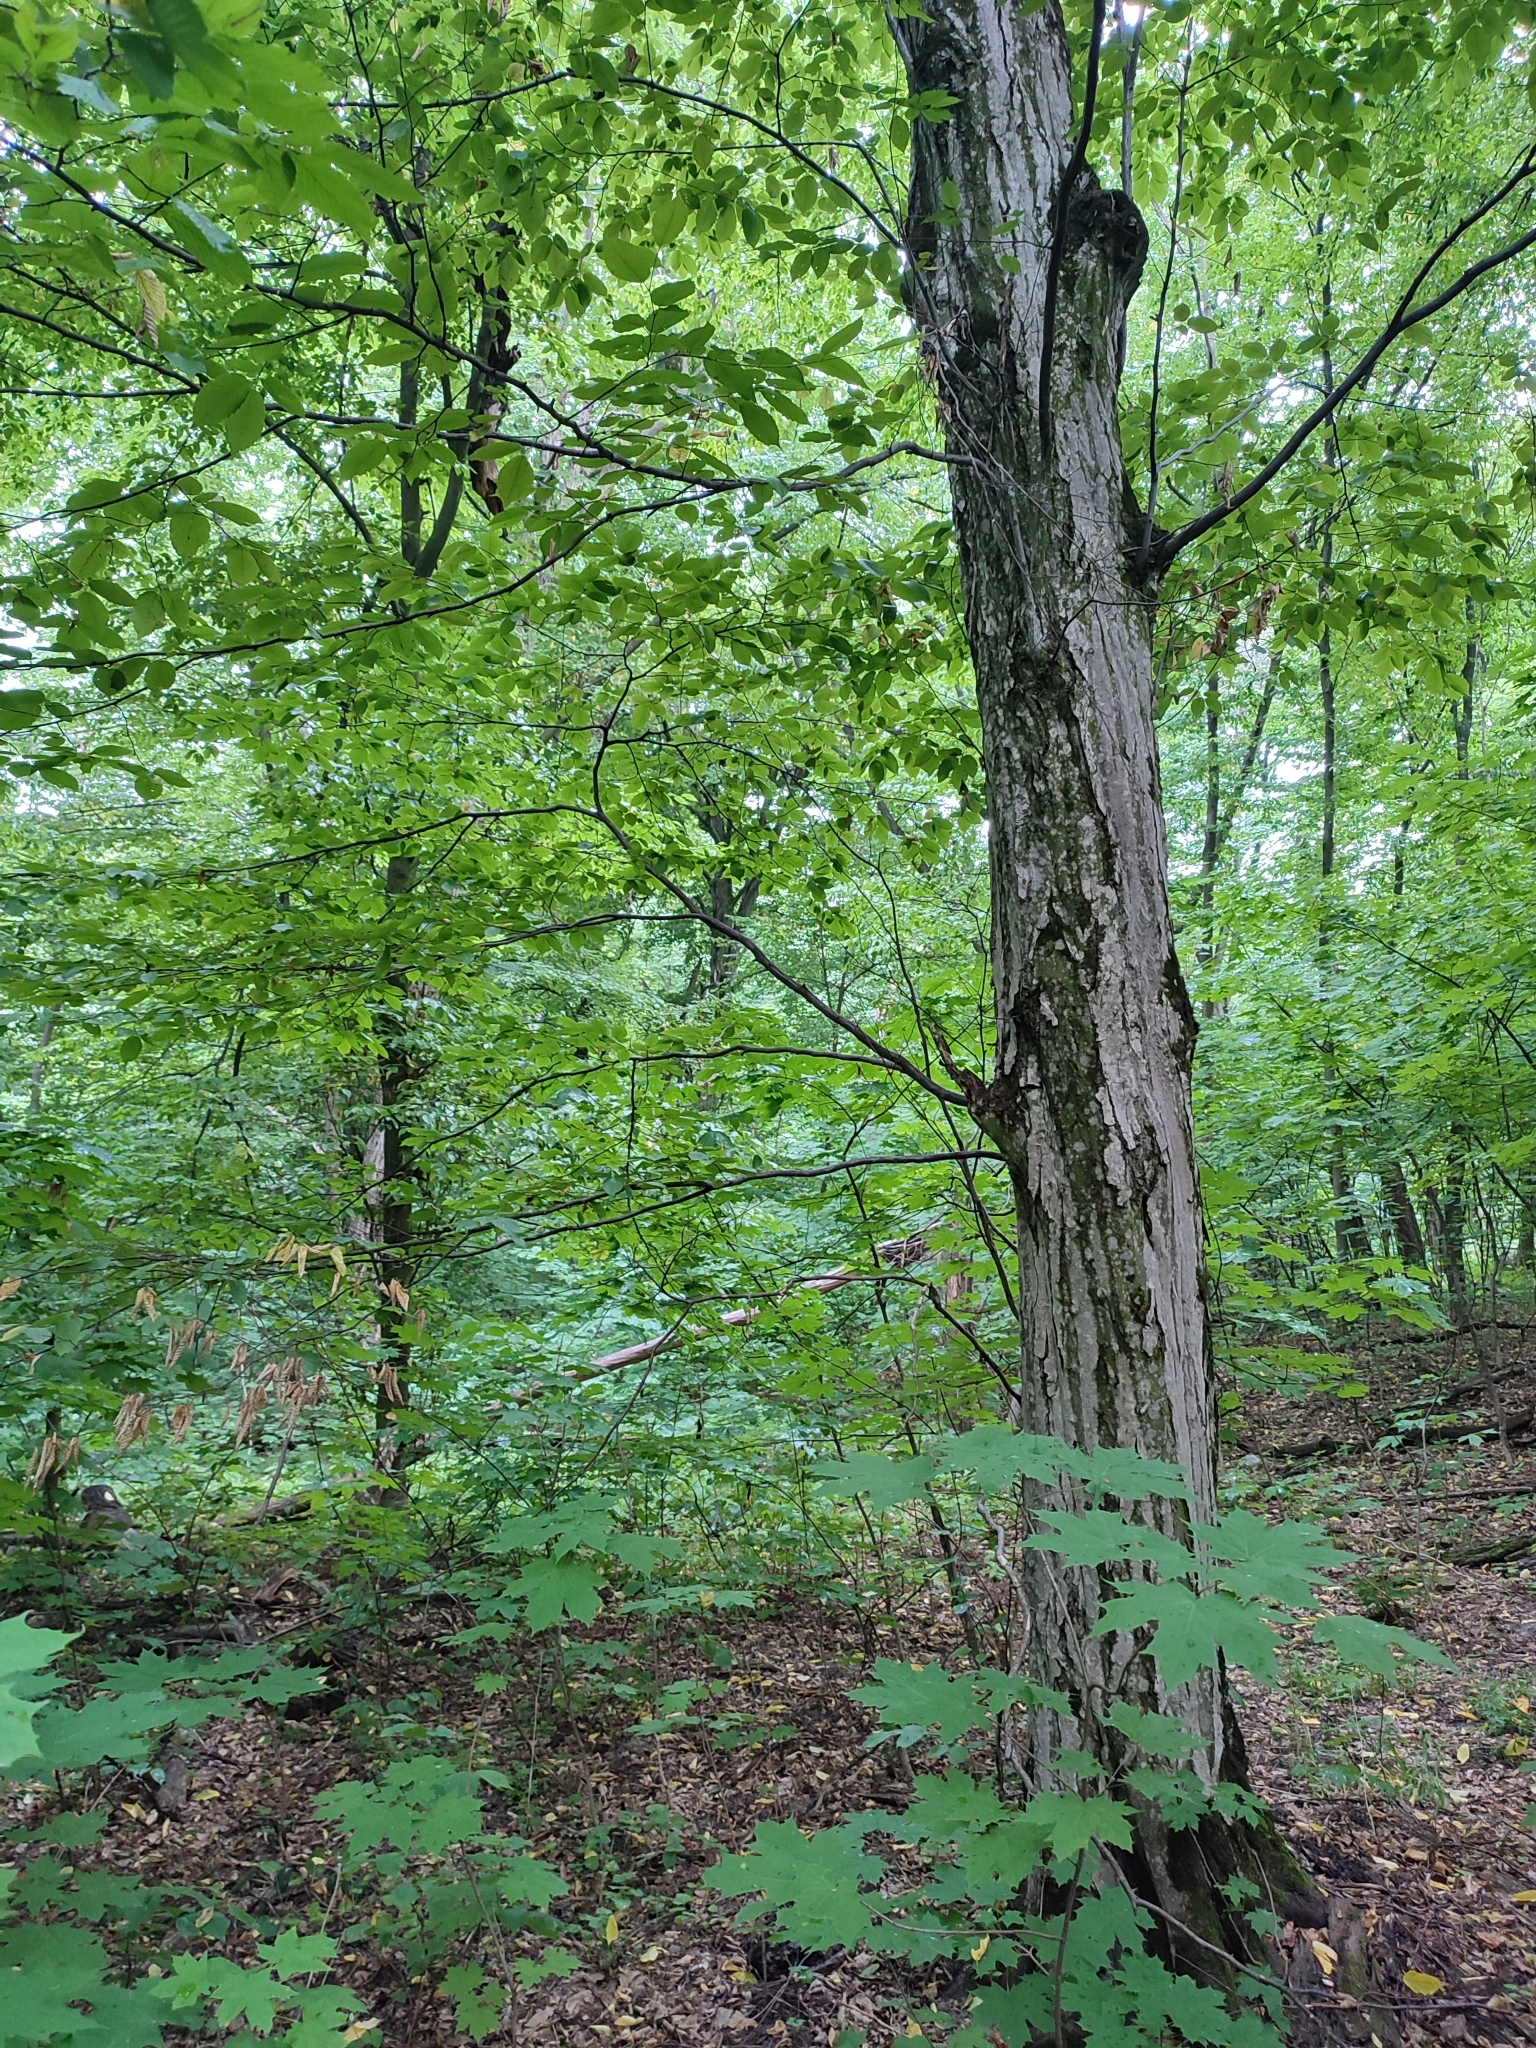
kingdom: Plantae
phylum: Tracheophyta
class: Magnoliopsida
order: Fagales
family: Betulaceae
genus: Carpinus
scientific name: Carpinus betulus
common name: Hornbeam
